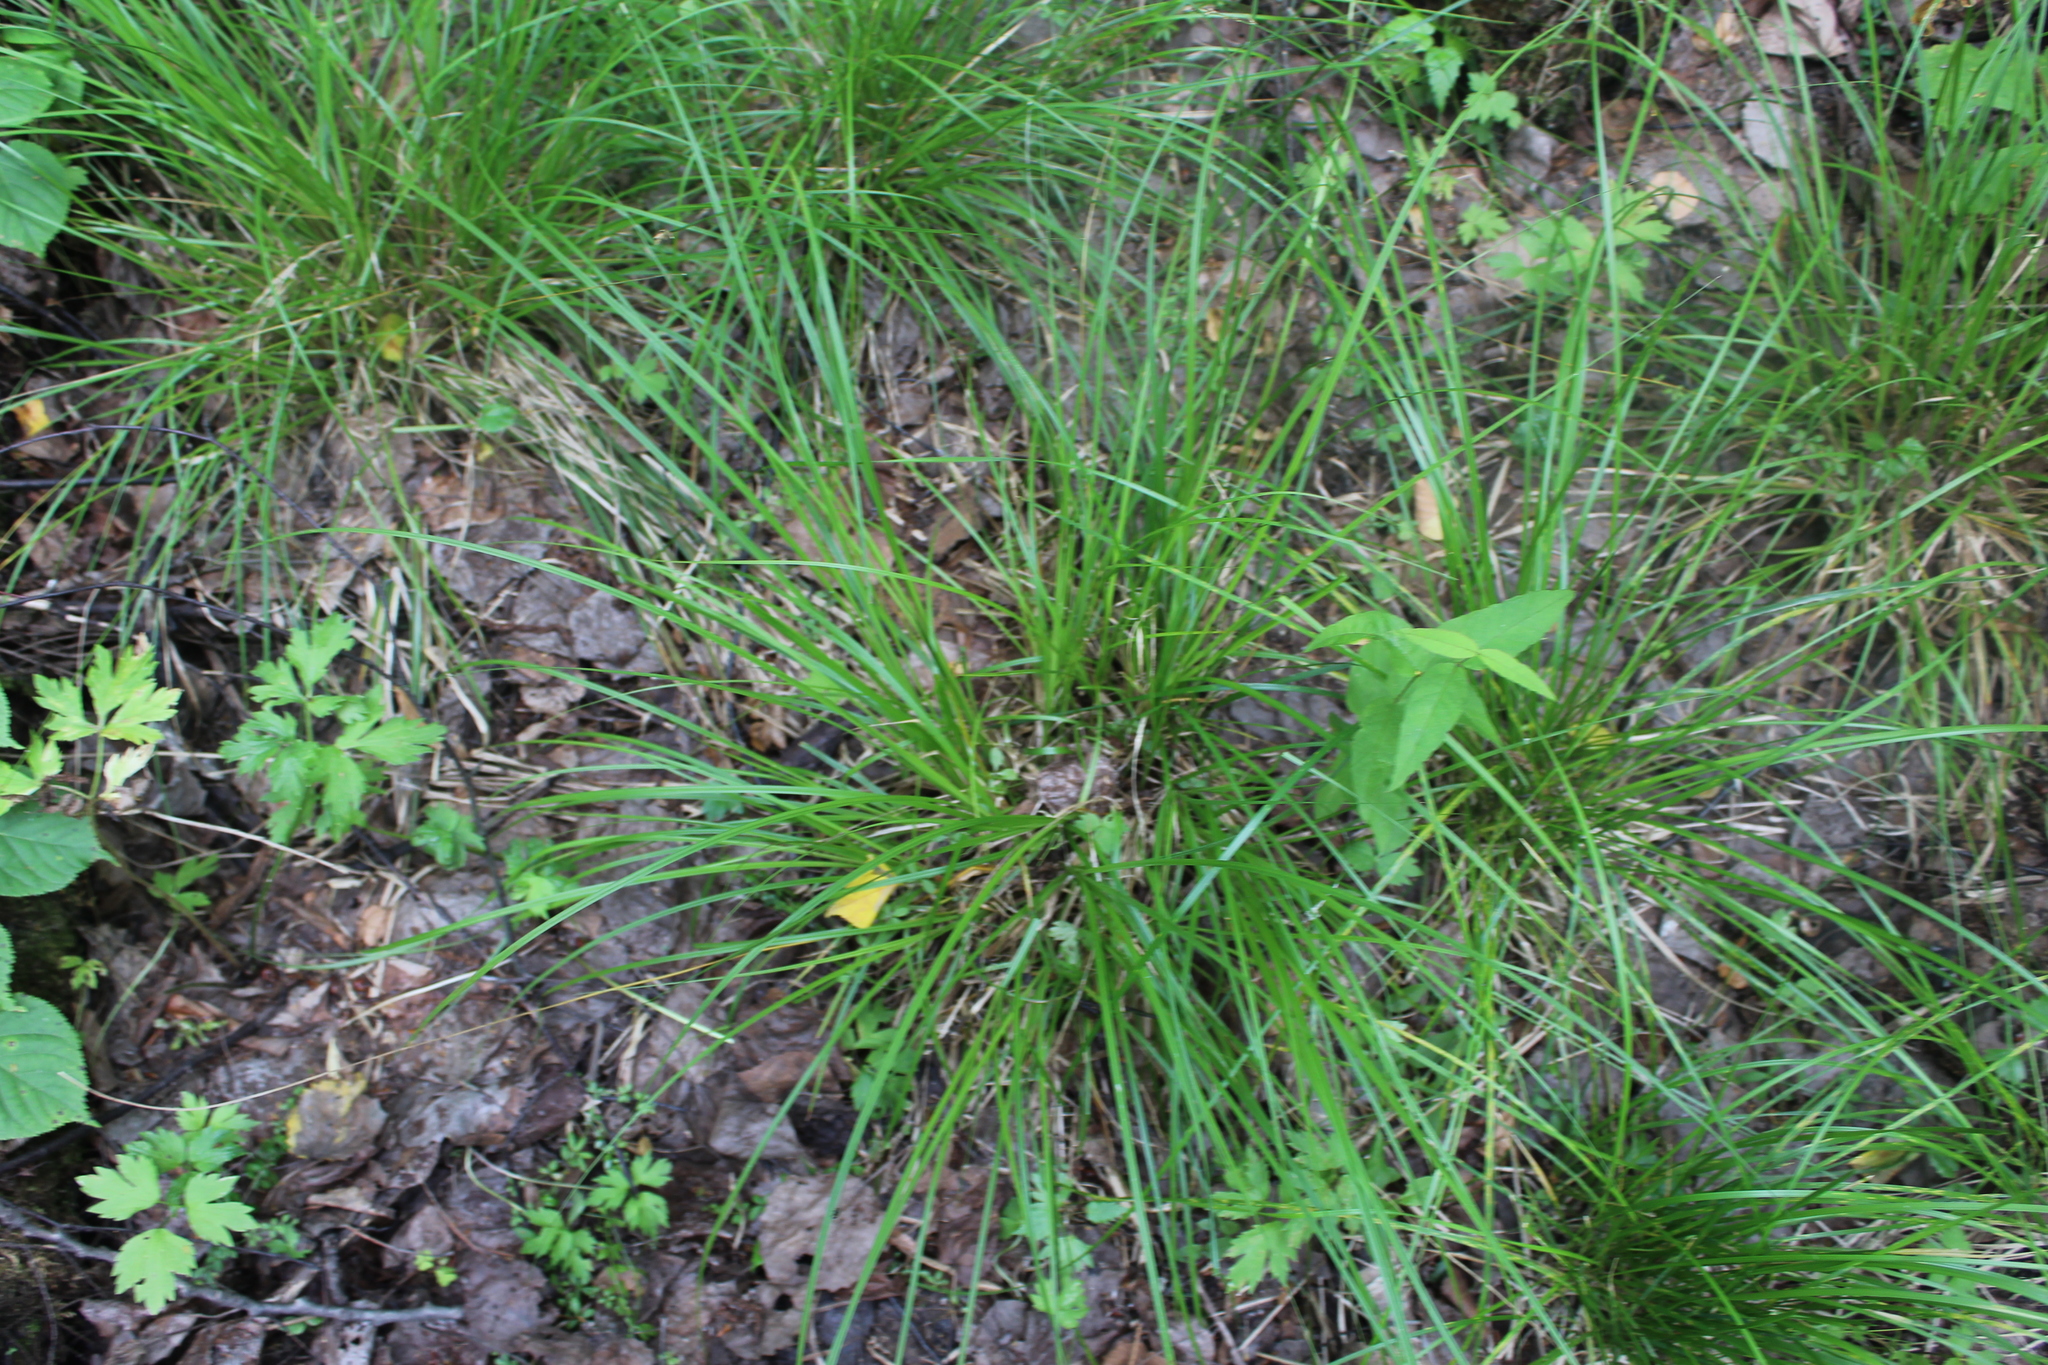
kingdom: Plantae
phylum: Tracheophyta
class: Liliopsida
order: Poales
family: Cyperaceae
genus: Carex
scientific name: Carex elongata
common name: Elongated sedge
